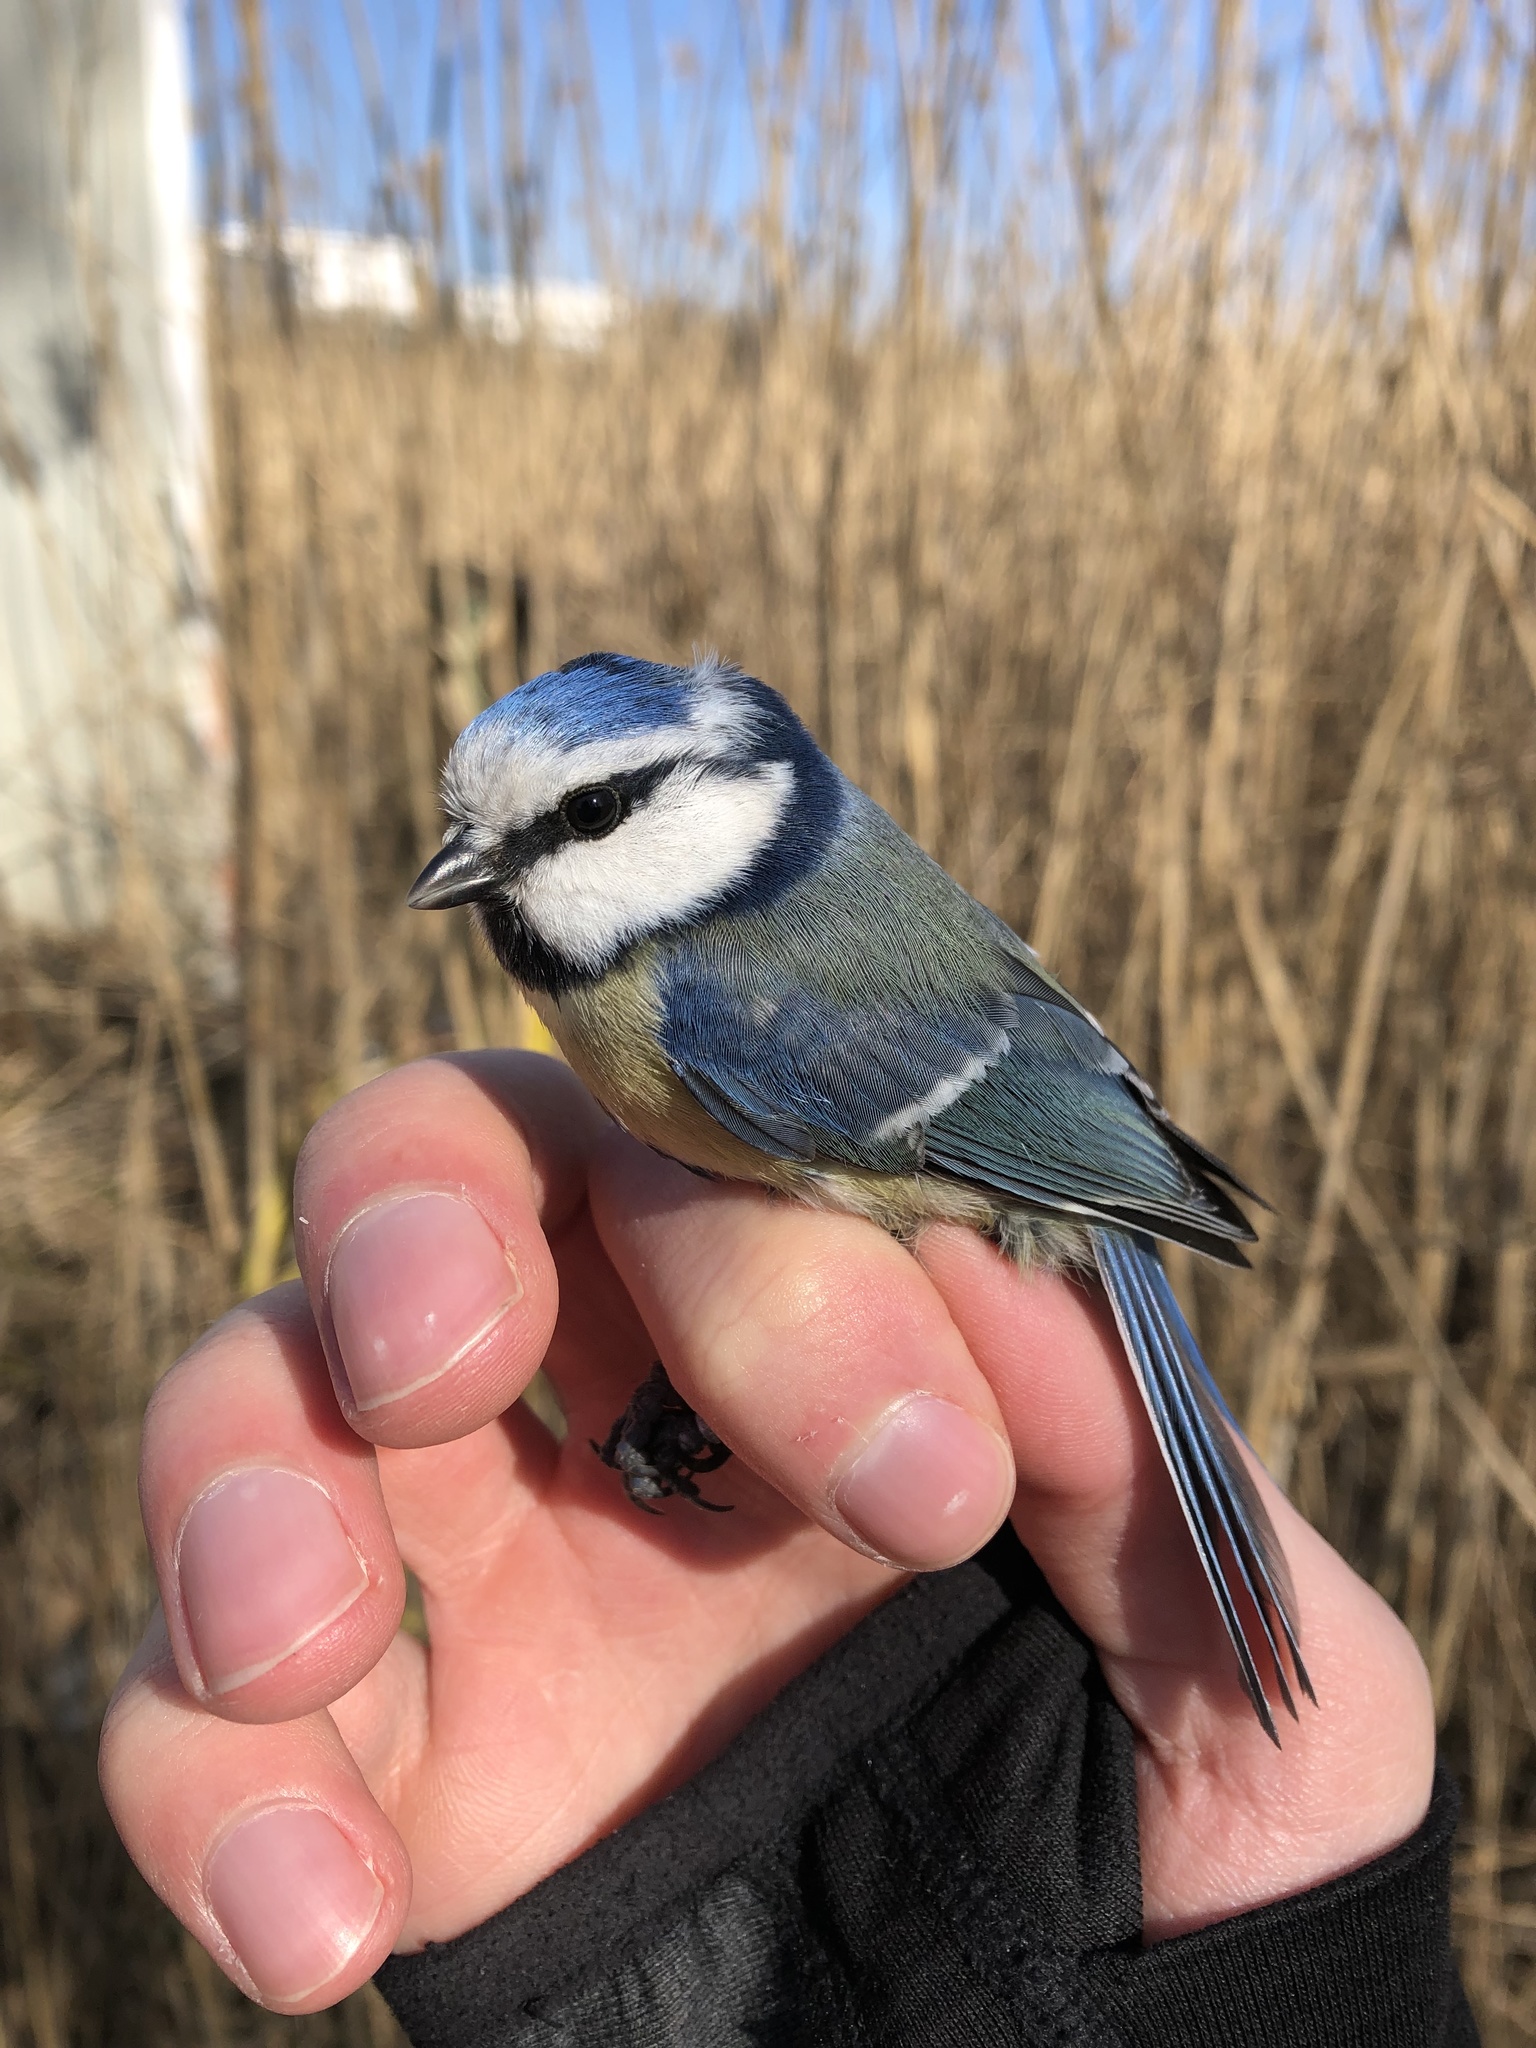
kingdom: Animalia
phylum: Chordata
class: Aves
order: Passeriformes
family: Paridae
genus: Cyanistes
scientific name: Cyanistes caeruleus
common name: Eurasian blue tit
